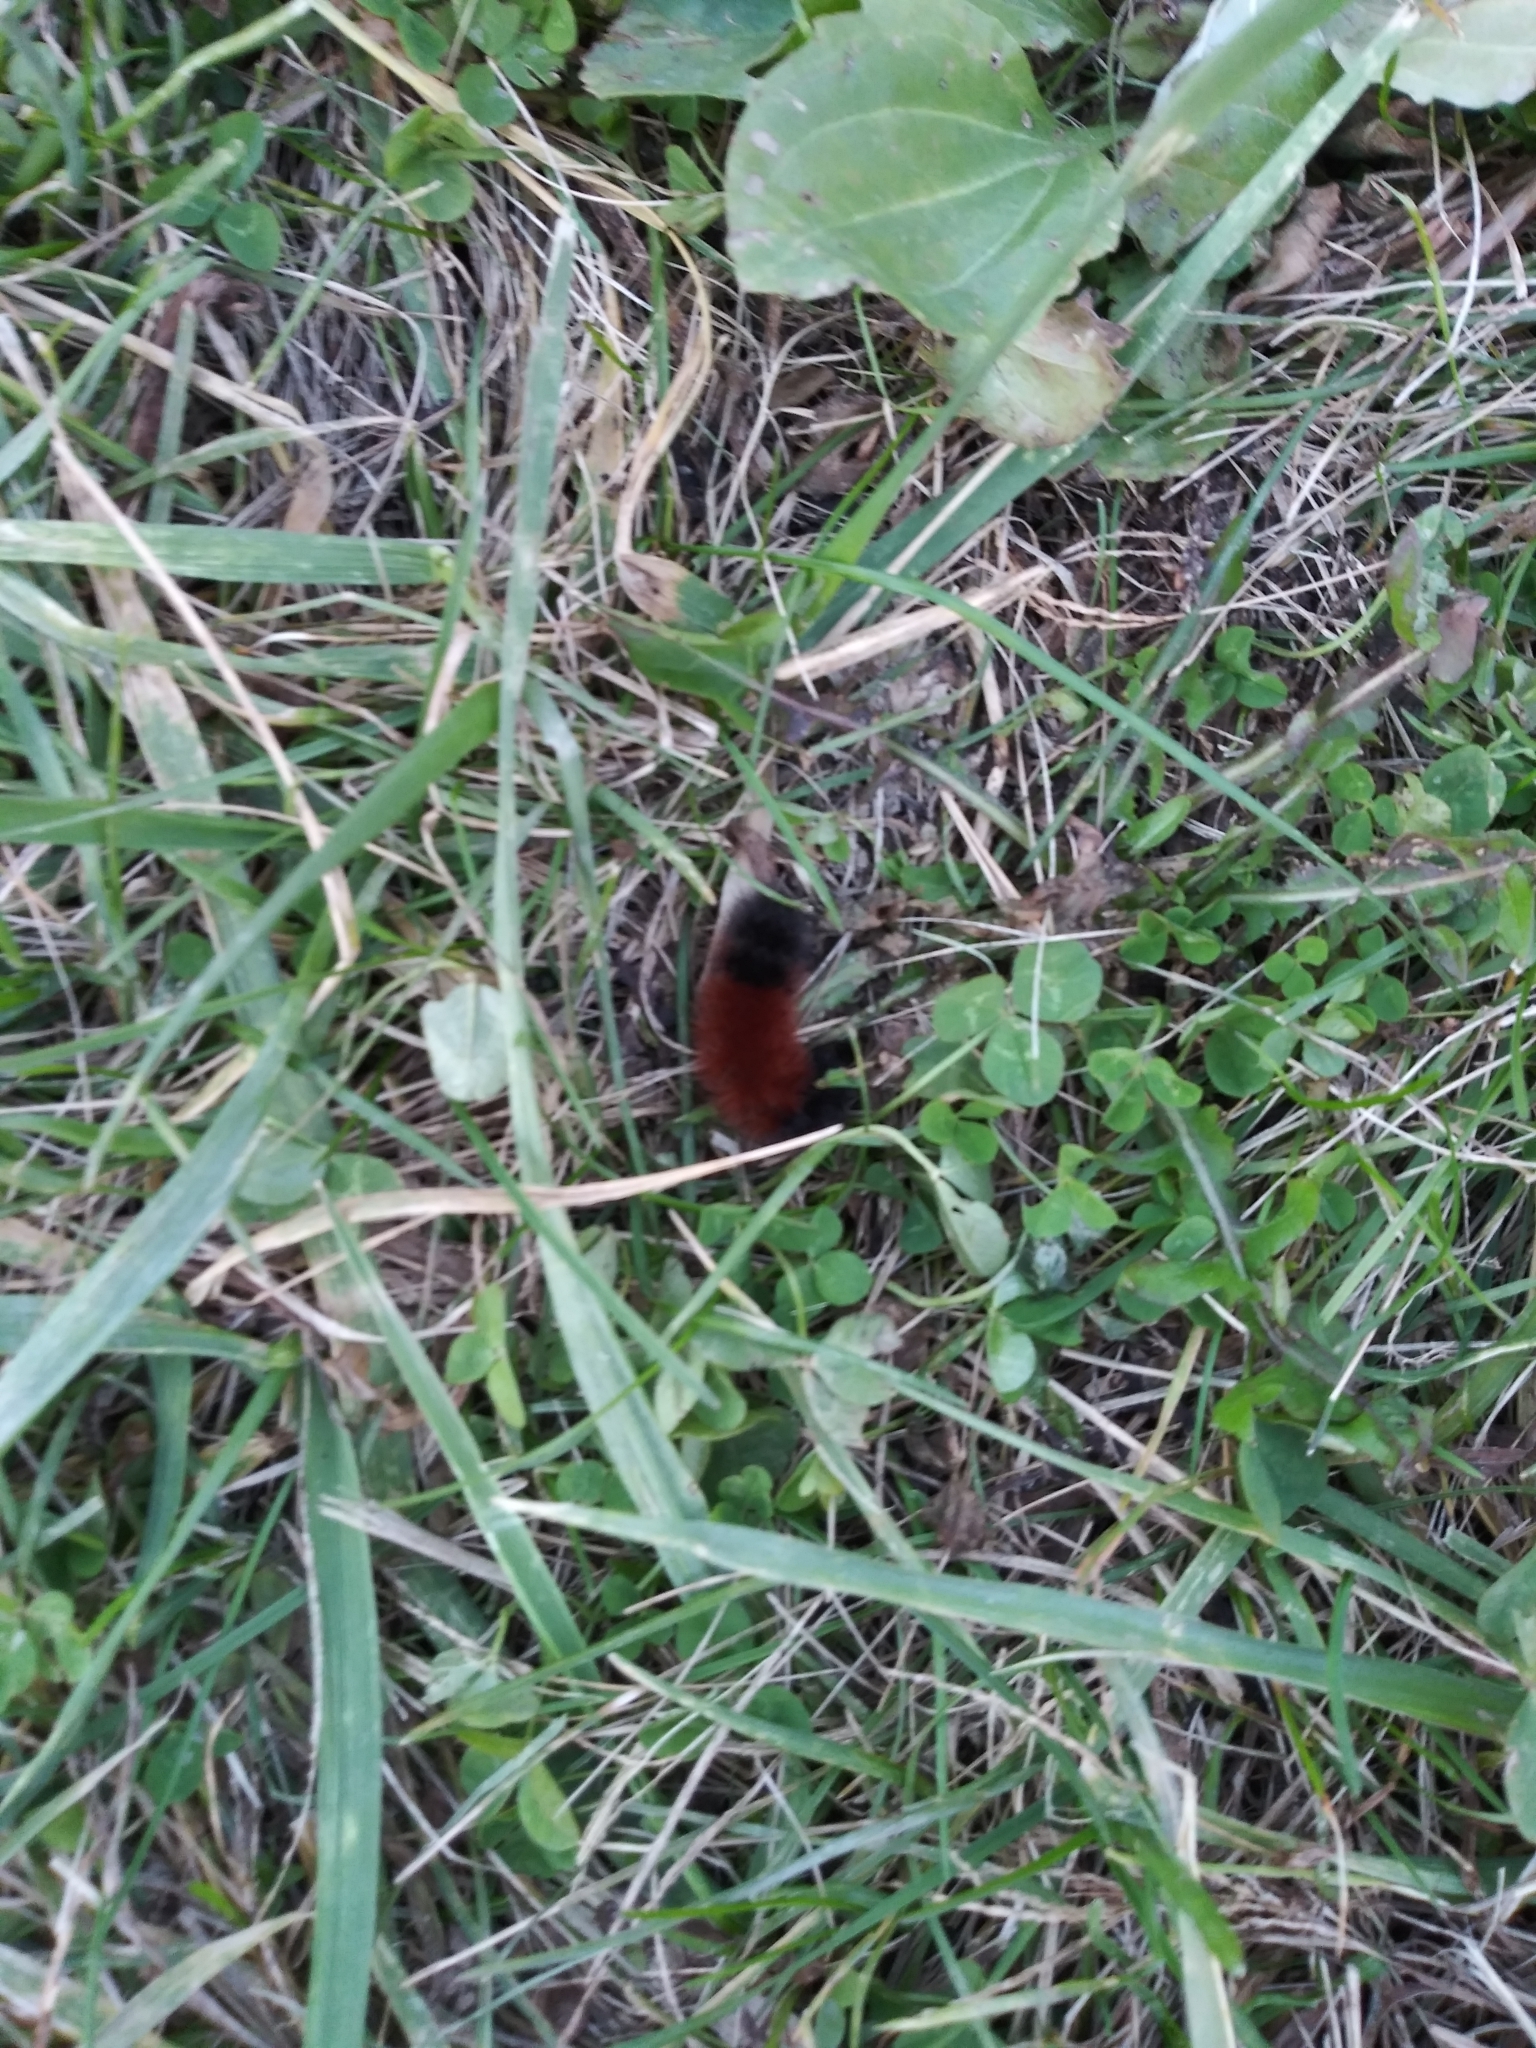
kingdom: Animalia
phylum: Arthropoda
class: Insecta
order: Lepidoptera
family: Erebidae
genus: Pyrrharctia
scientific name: Pyrrharctia isabella
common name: Isabella tiger moth
